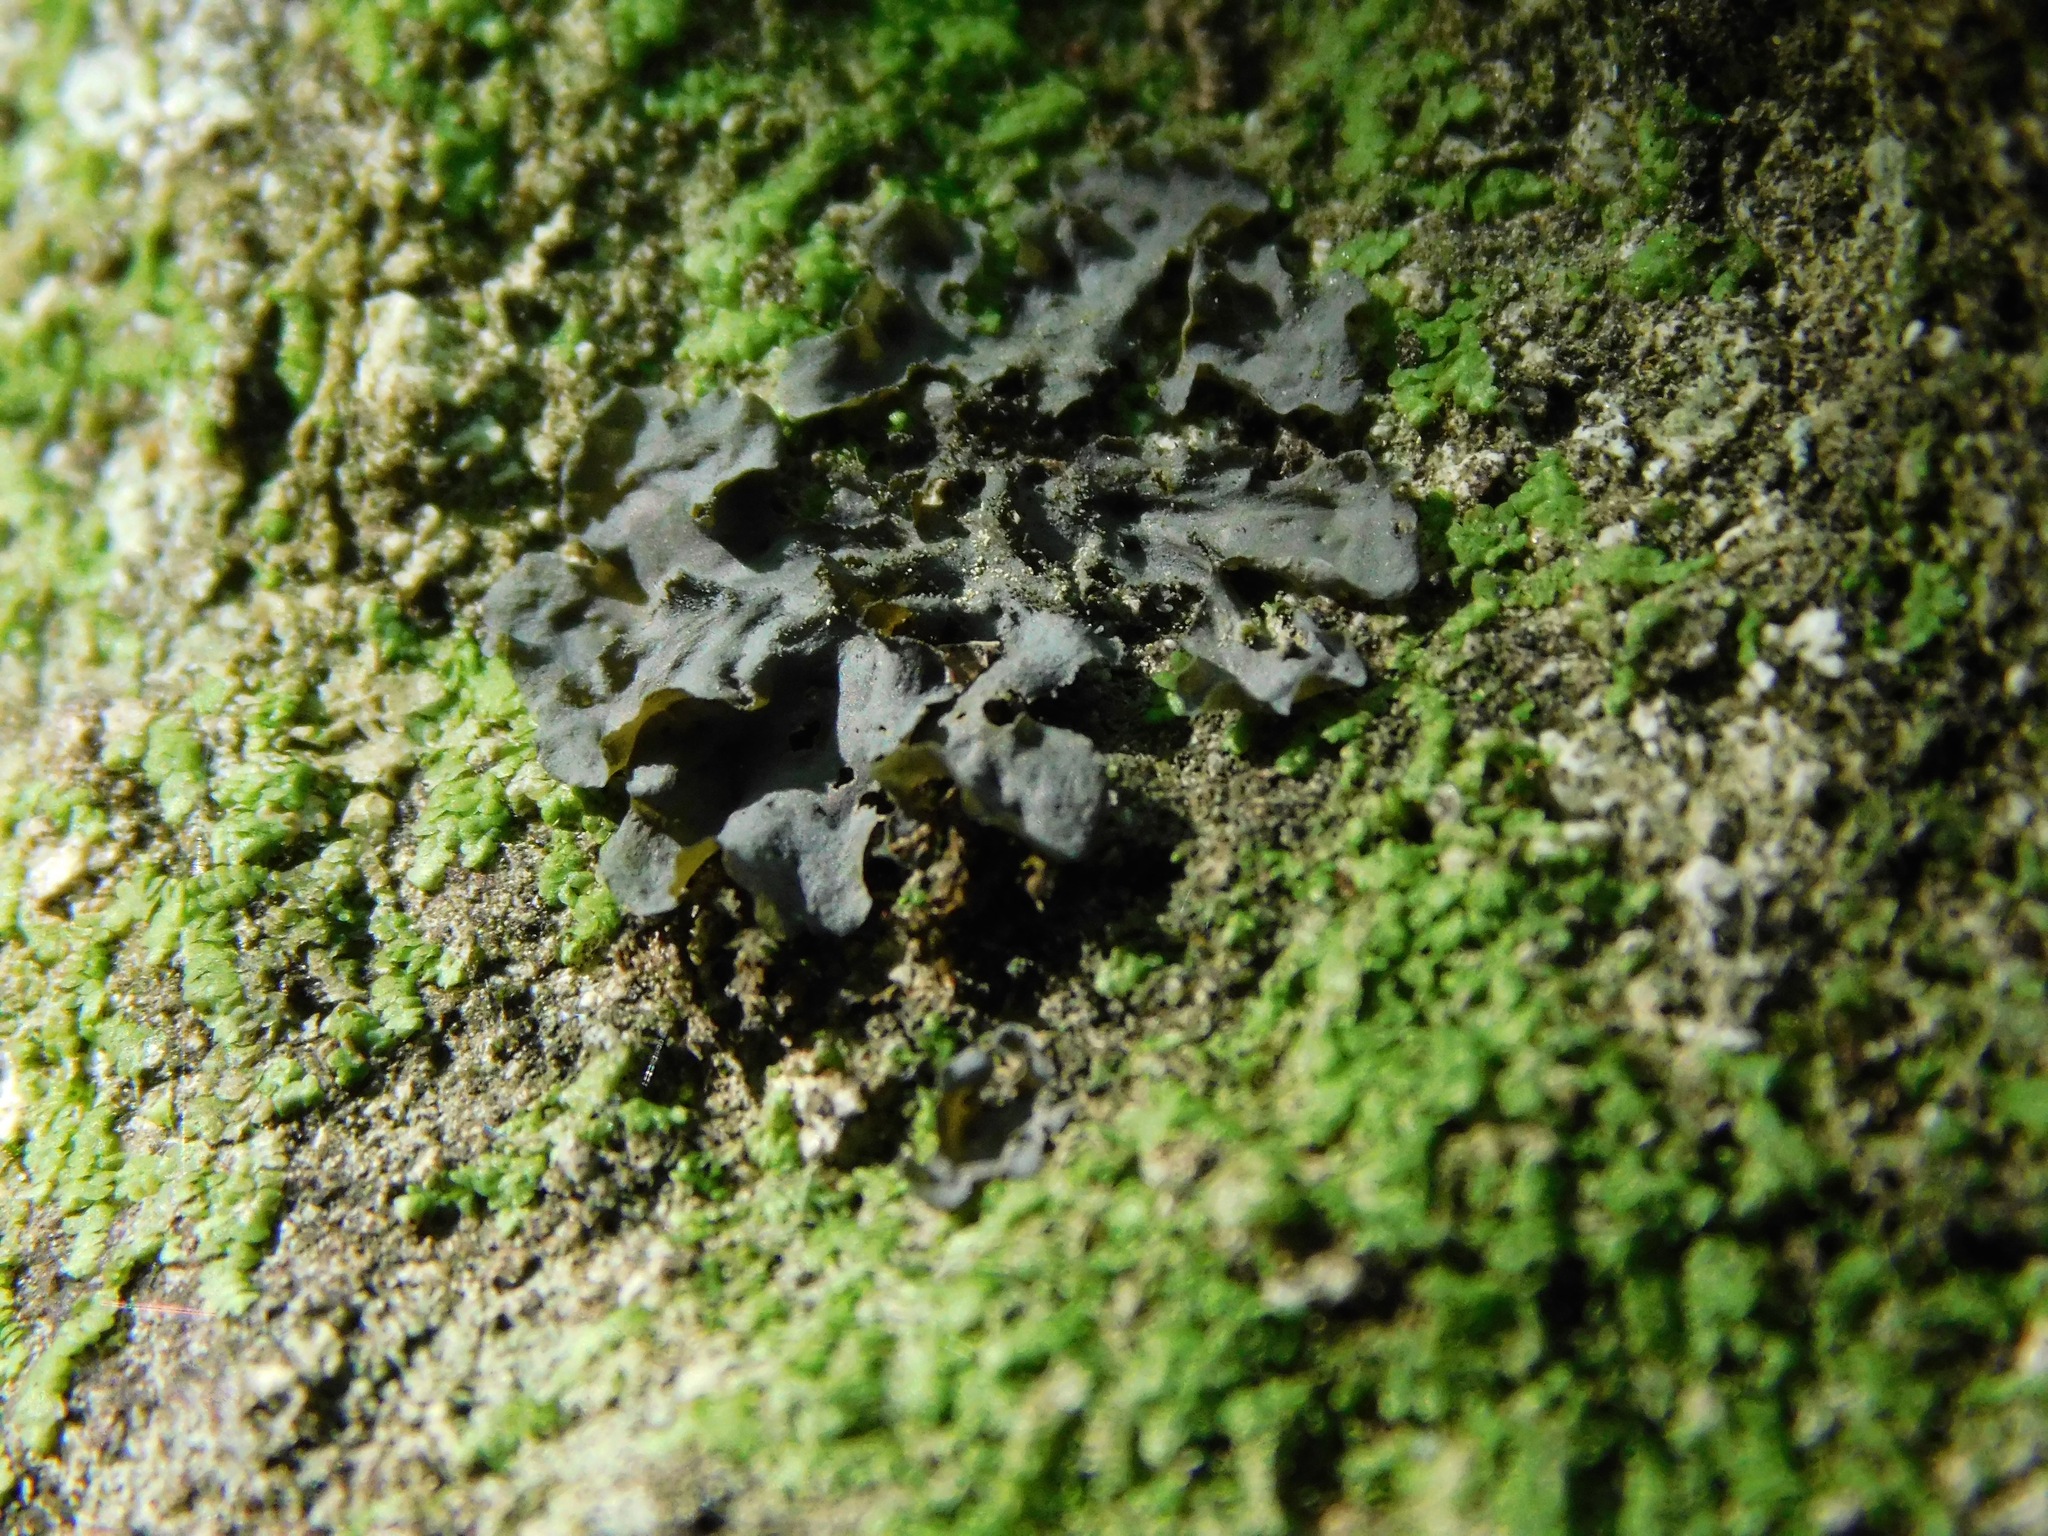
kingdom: Fungi
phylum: Ascomycota
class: Lecanoromycetes
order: Peltigerales
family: Collemataceae
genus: Leptogium
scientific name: Leptogium cyanescens
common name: Blue jellyskin
